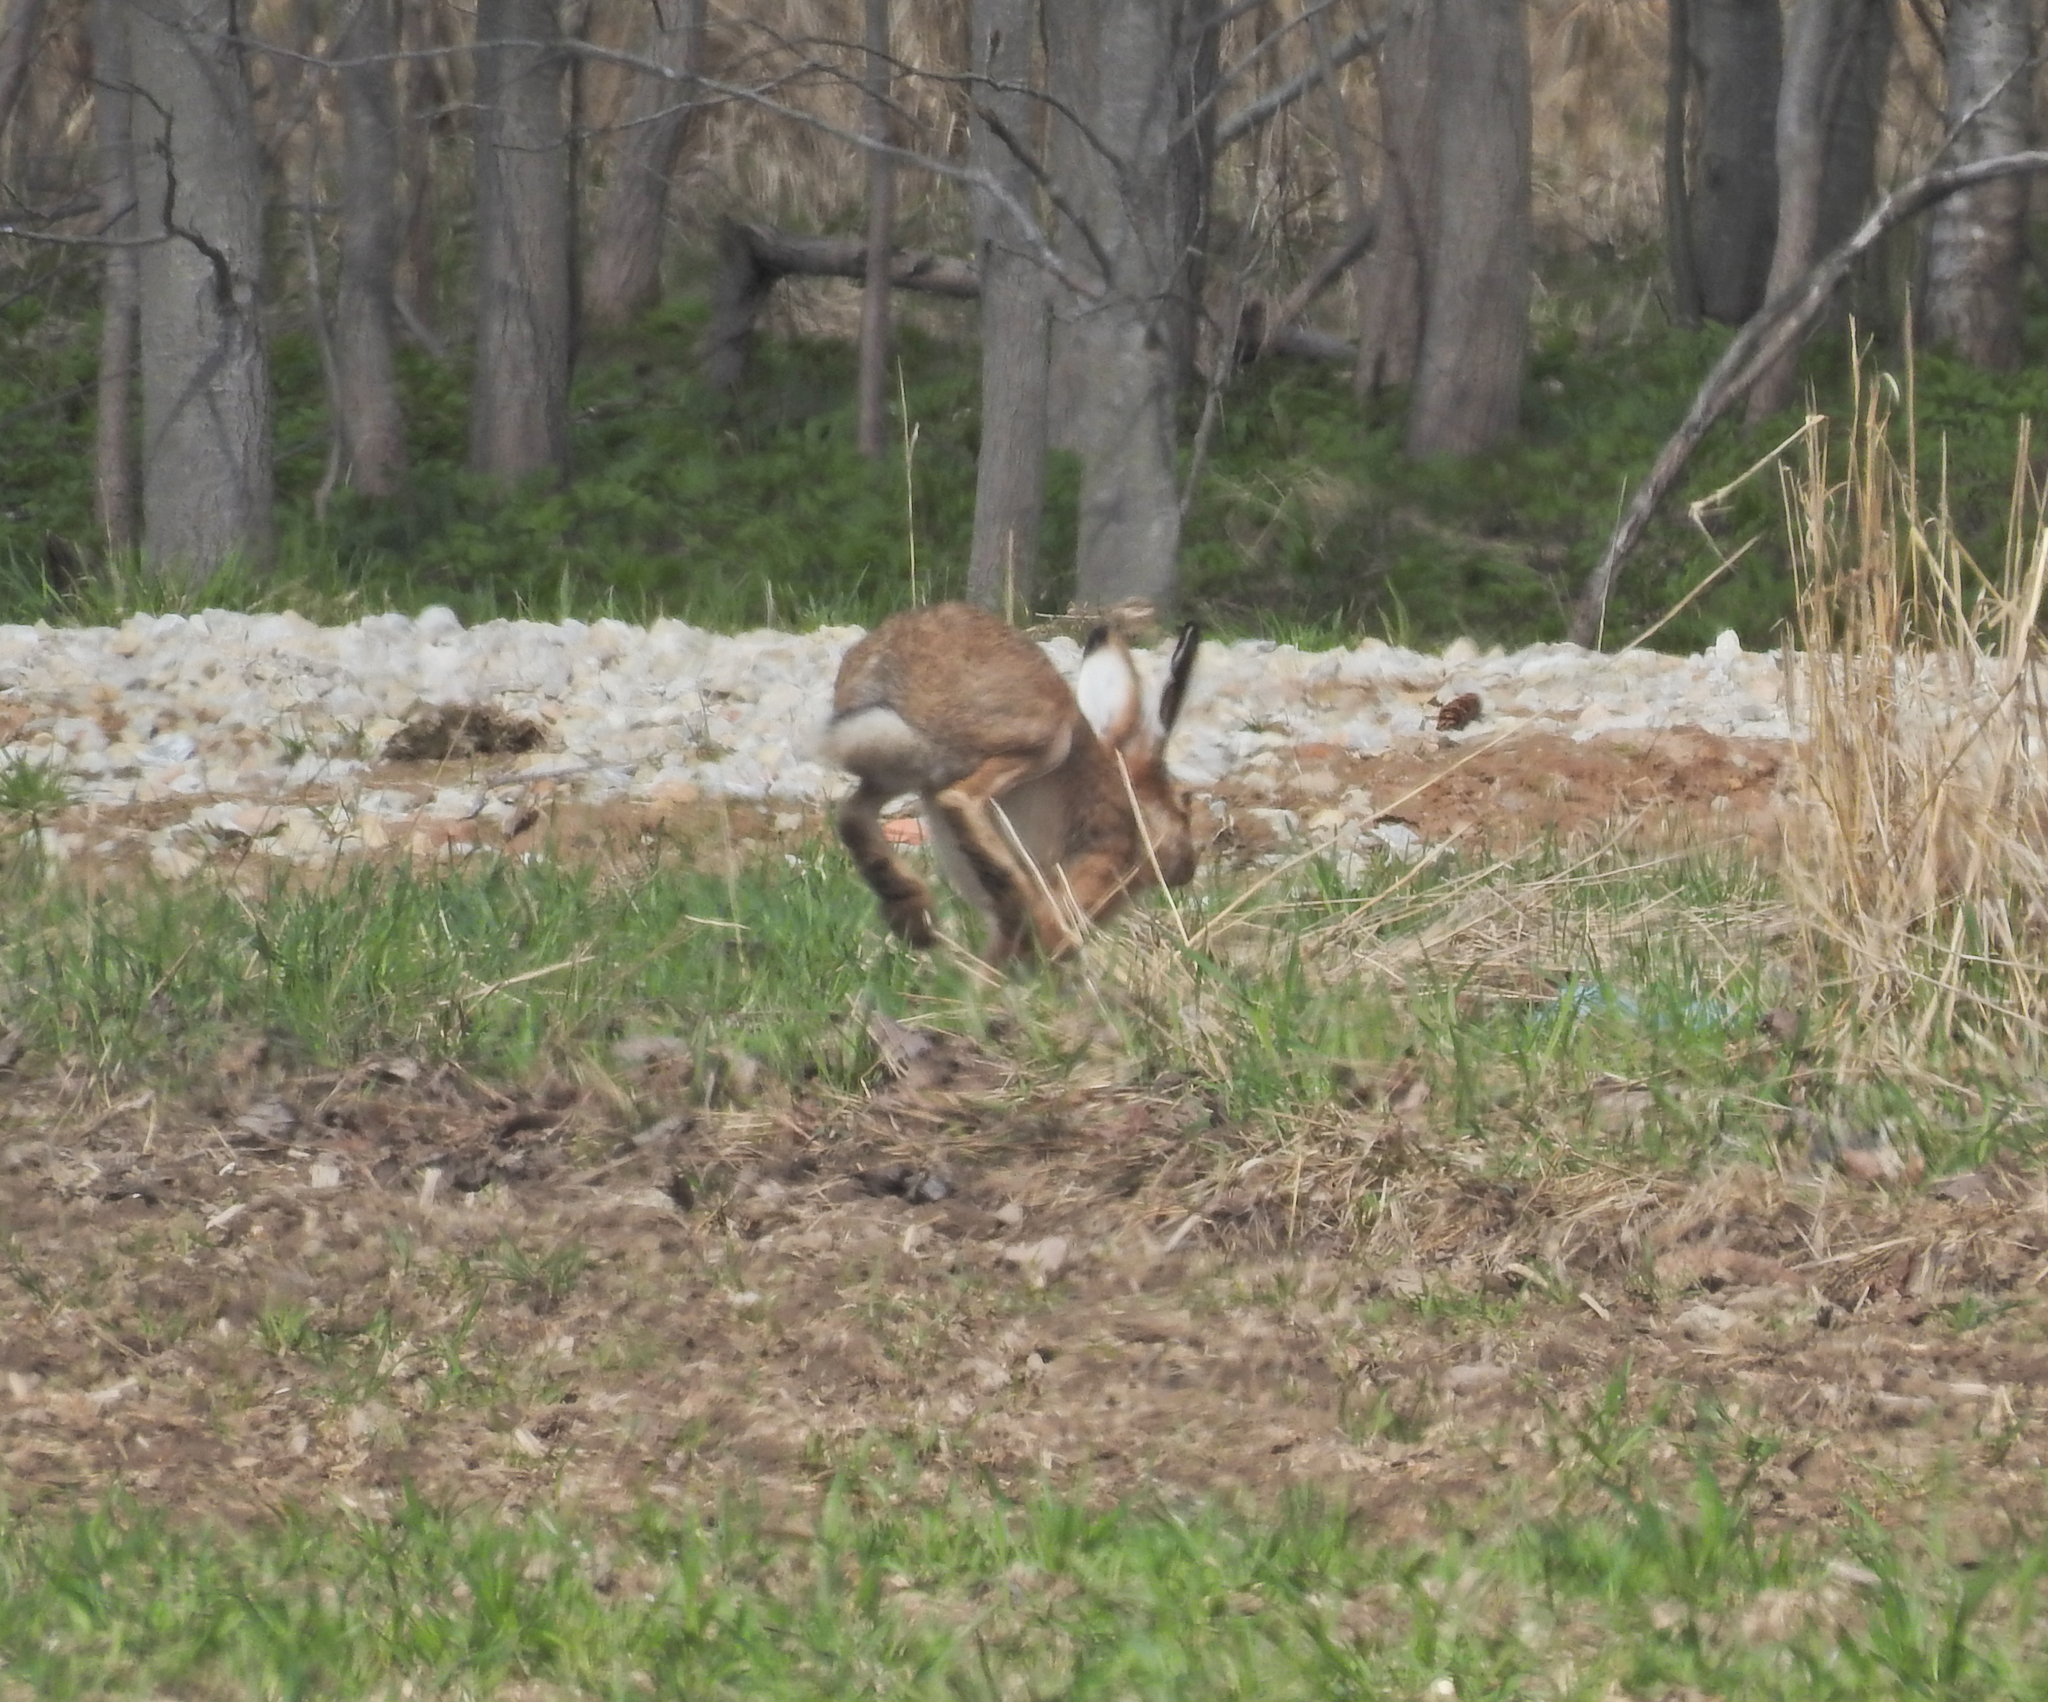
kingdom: Animalia
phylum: Chordata
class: Mammalia
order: Lagomorpha
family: Leporidae
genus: Lepus
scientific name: Lepus europaeus
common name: European hare
